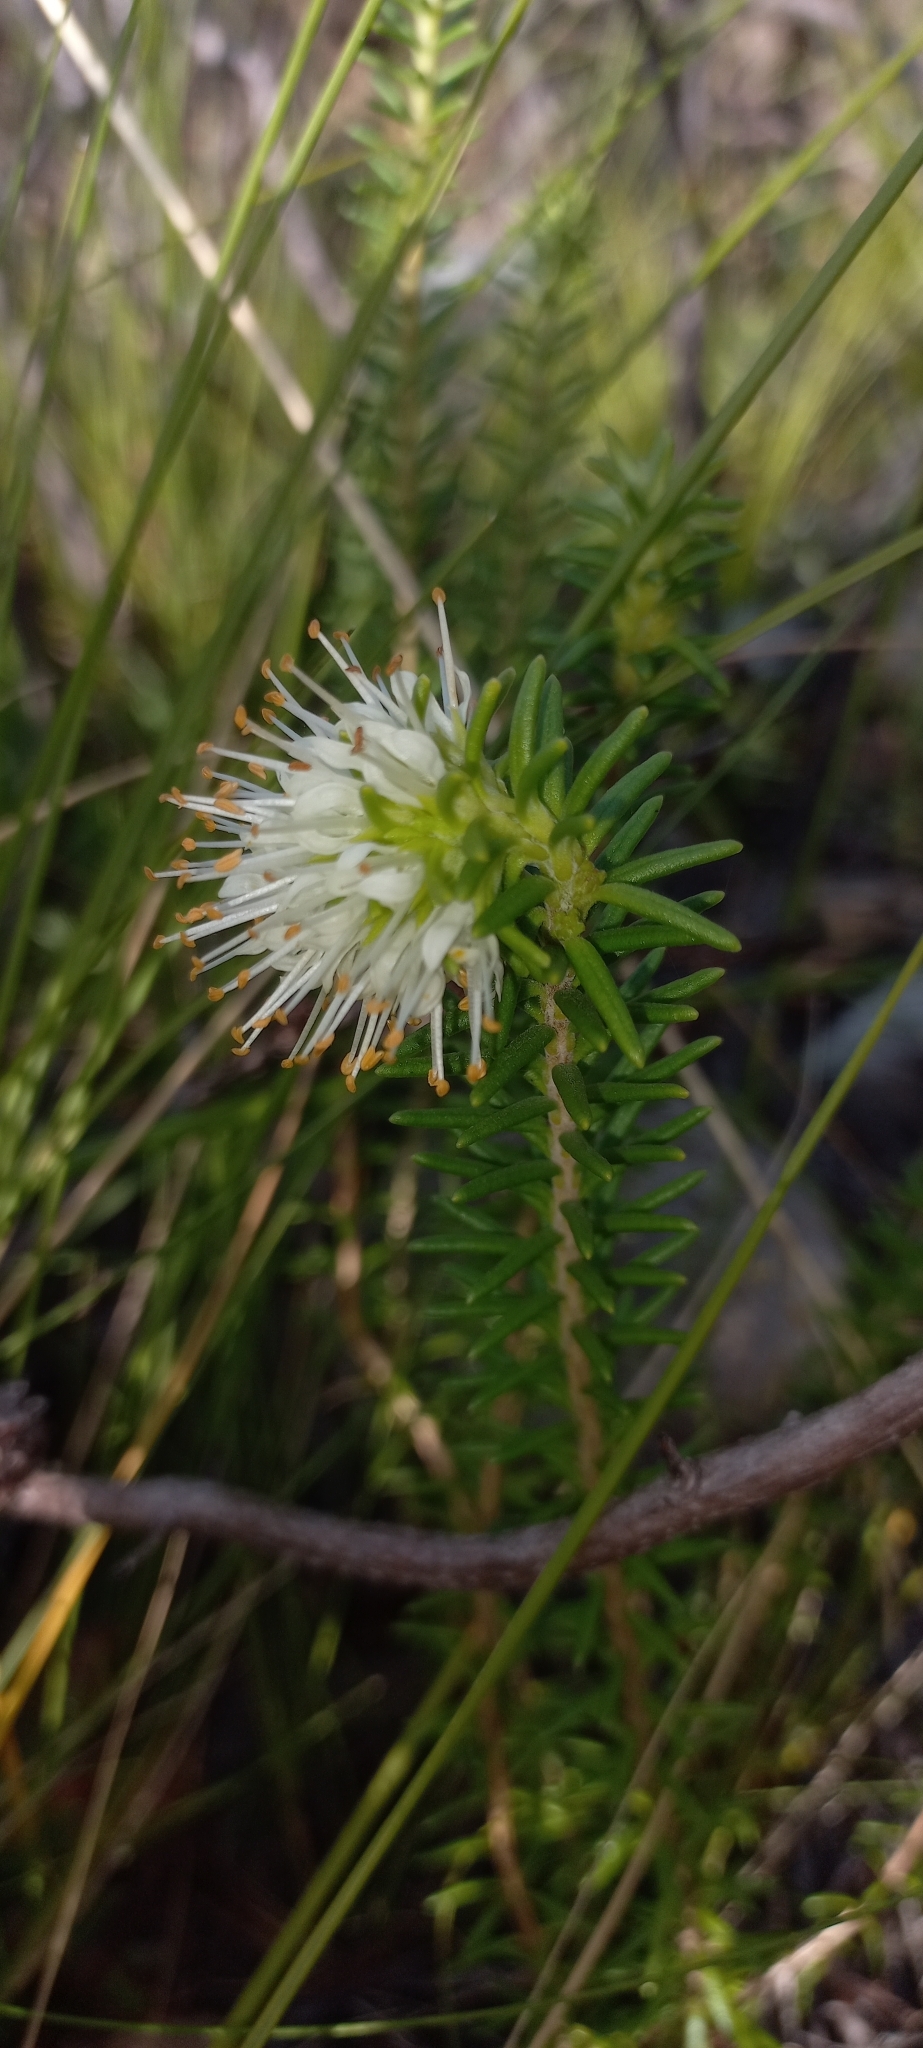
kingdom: Plantae
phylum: Tracheophyta
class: Magnoliopsida
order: Lamiales
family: Stilbaceae
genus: Campylostachys
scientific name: Campylostachys cernua
